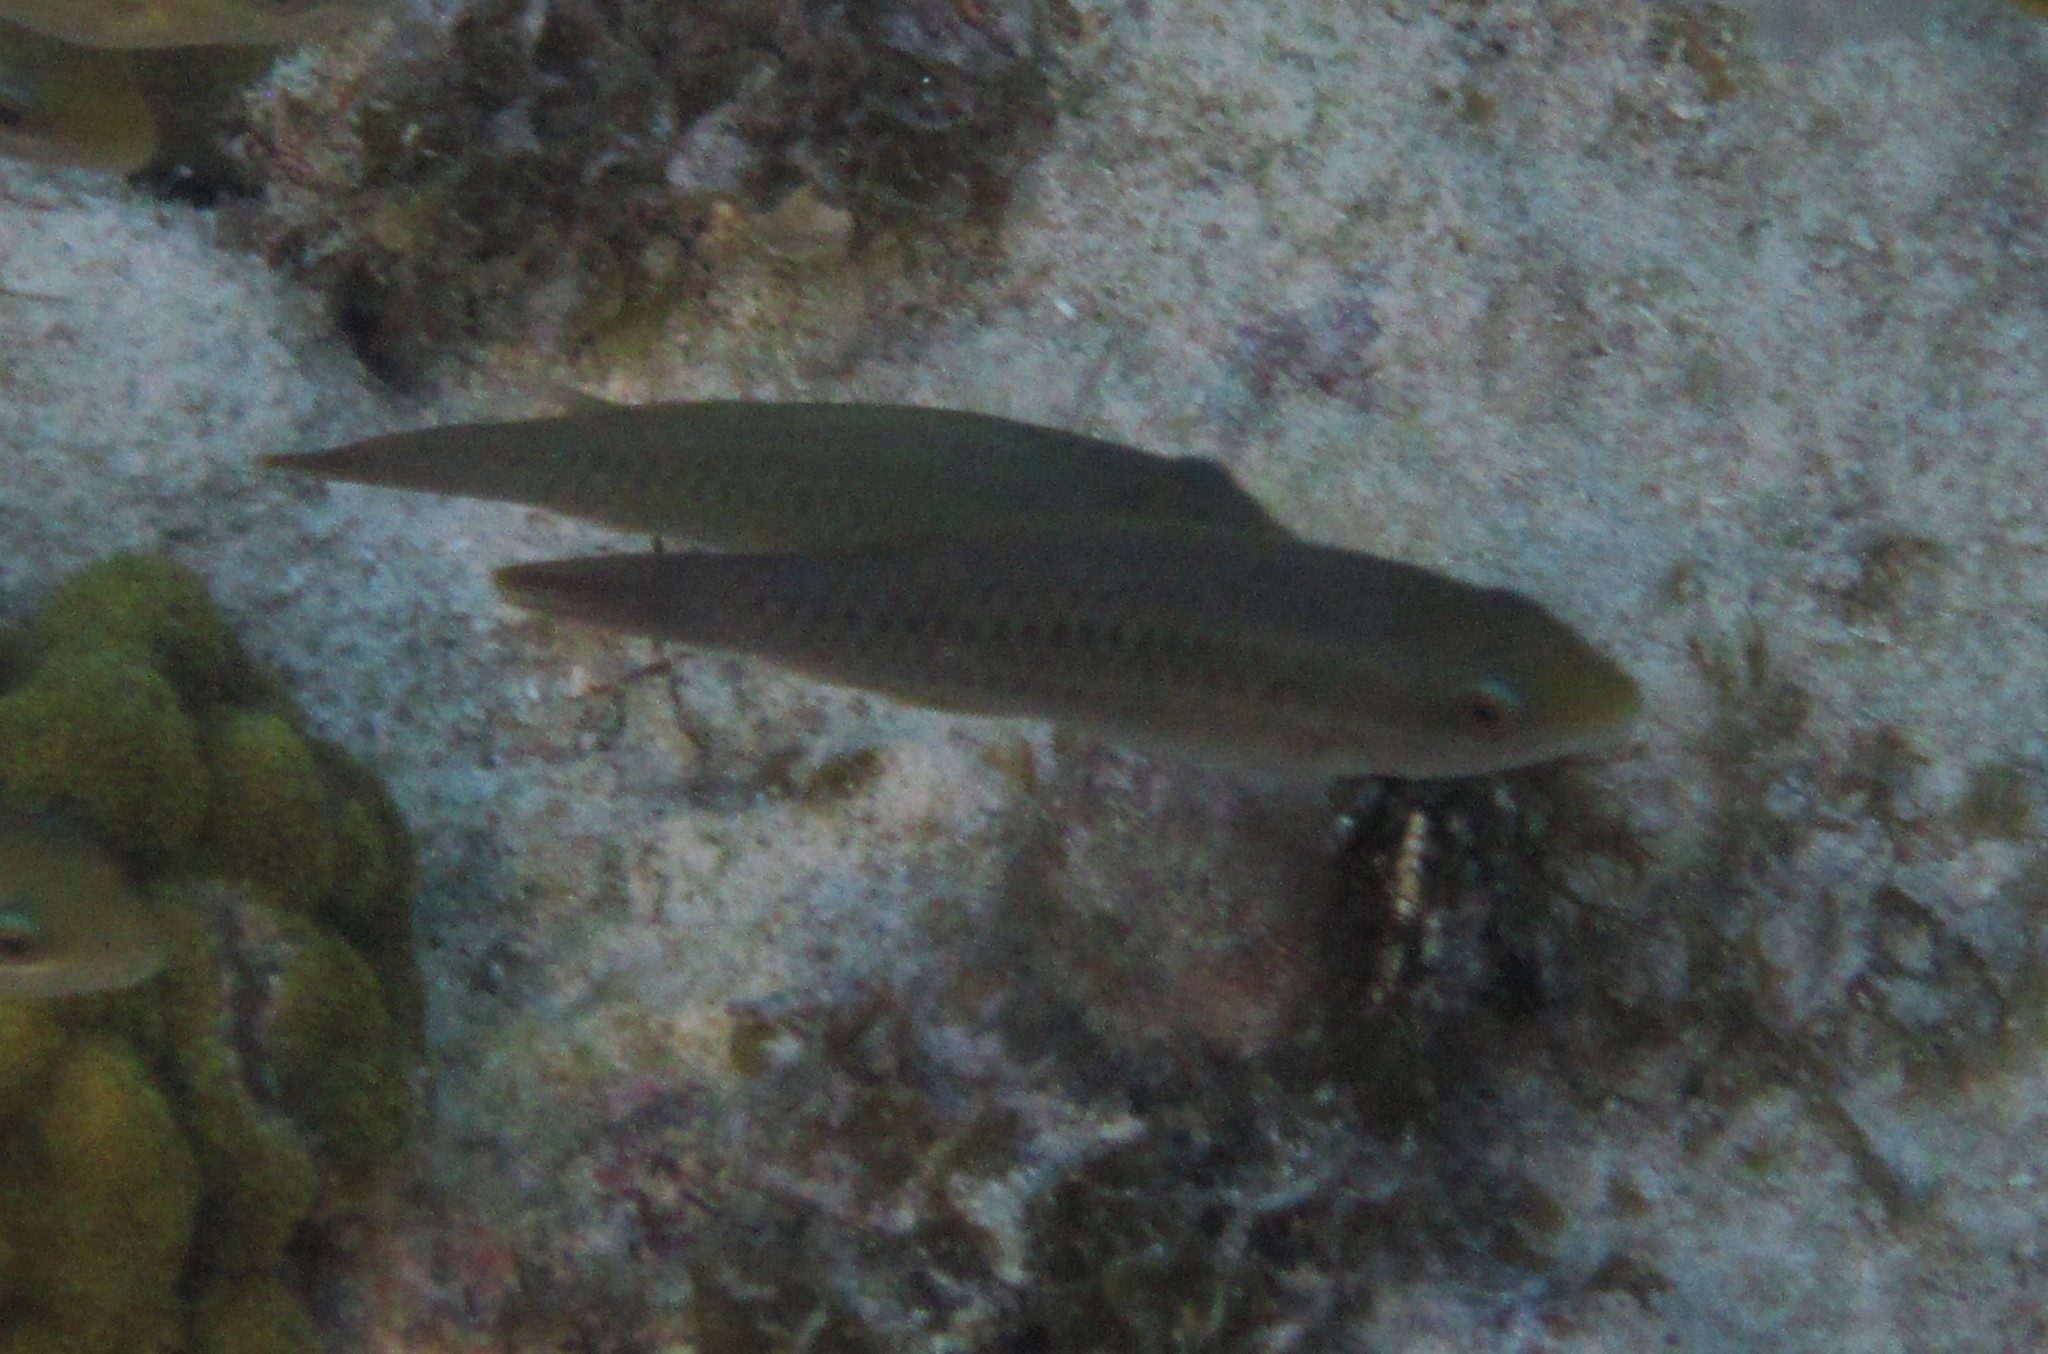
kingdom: Animalia
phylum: Chordata
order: Perciformes
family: Scaridae
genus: Scarus
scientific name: Scarus iseri
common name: Striped parrotfish
